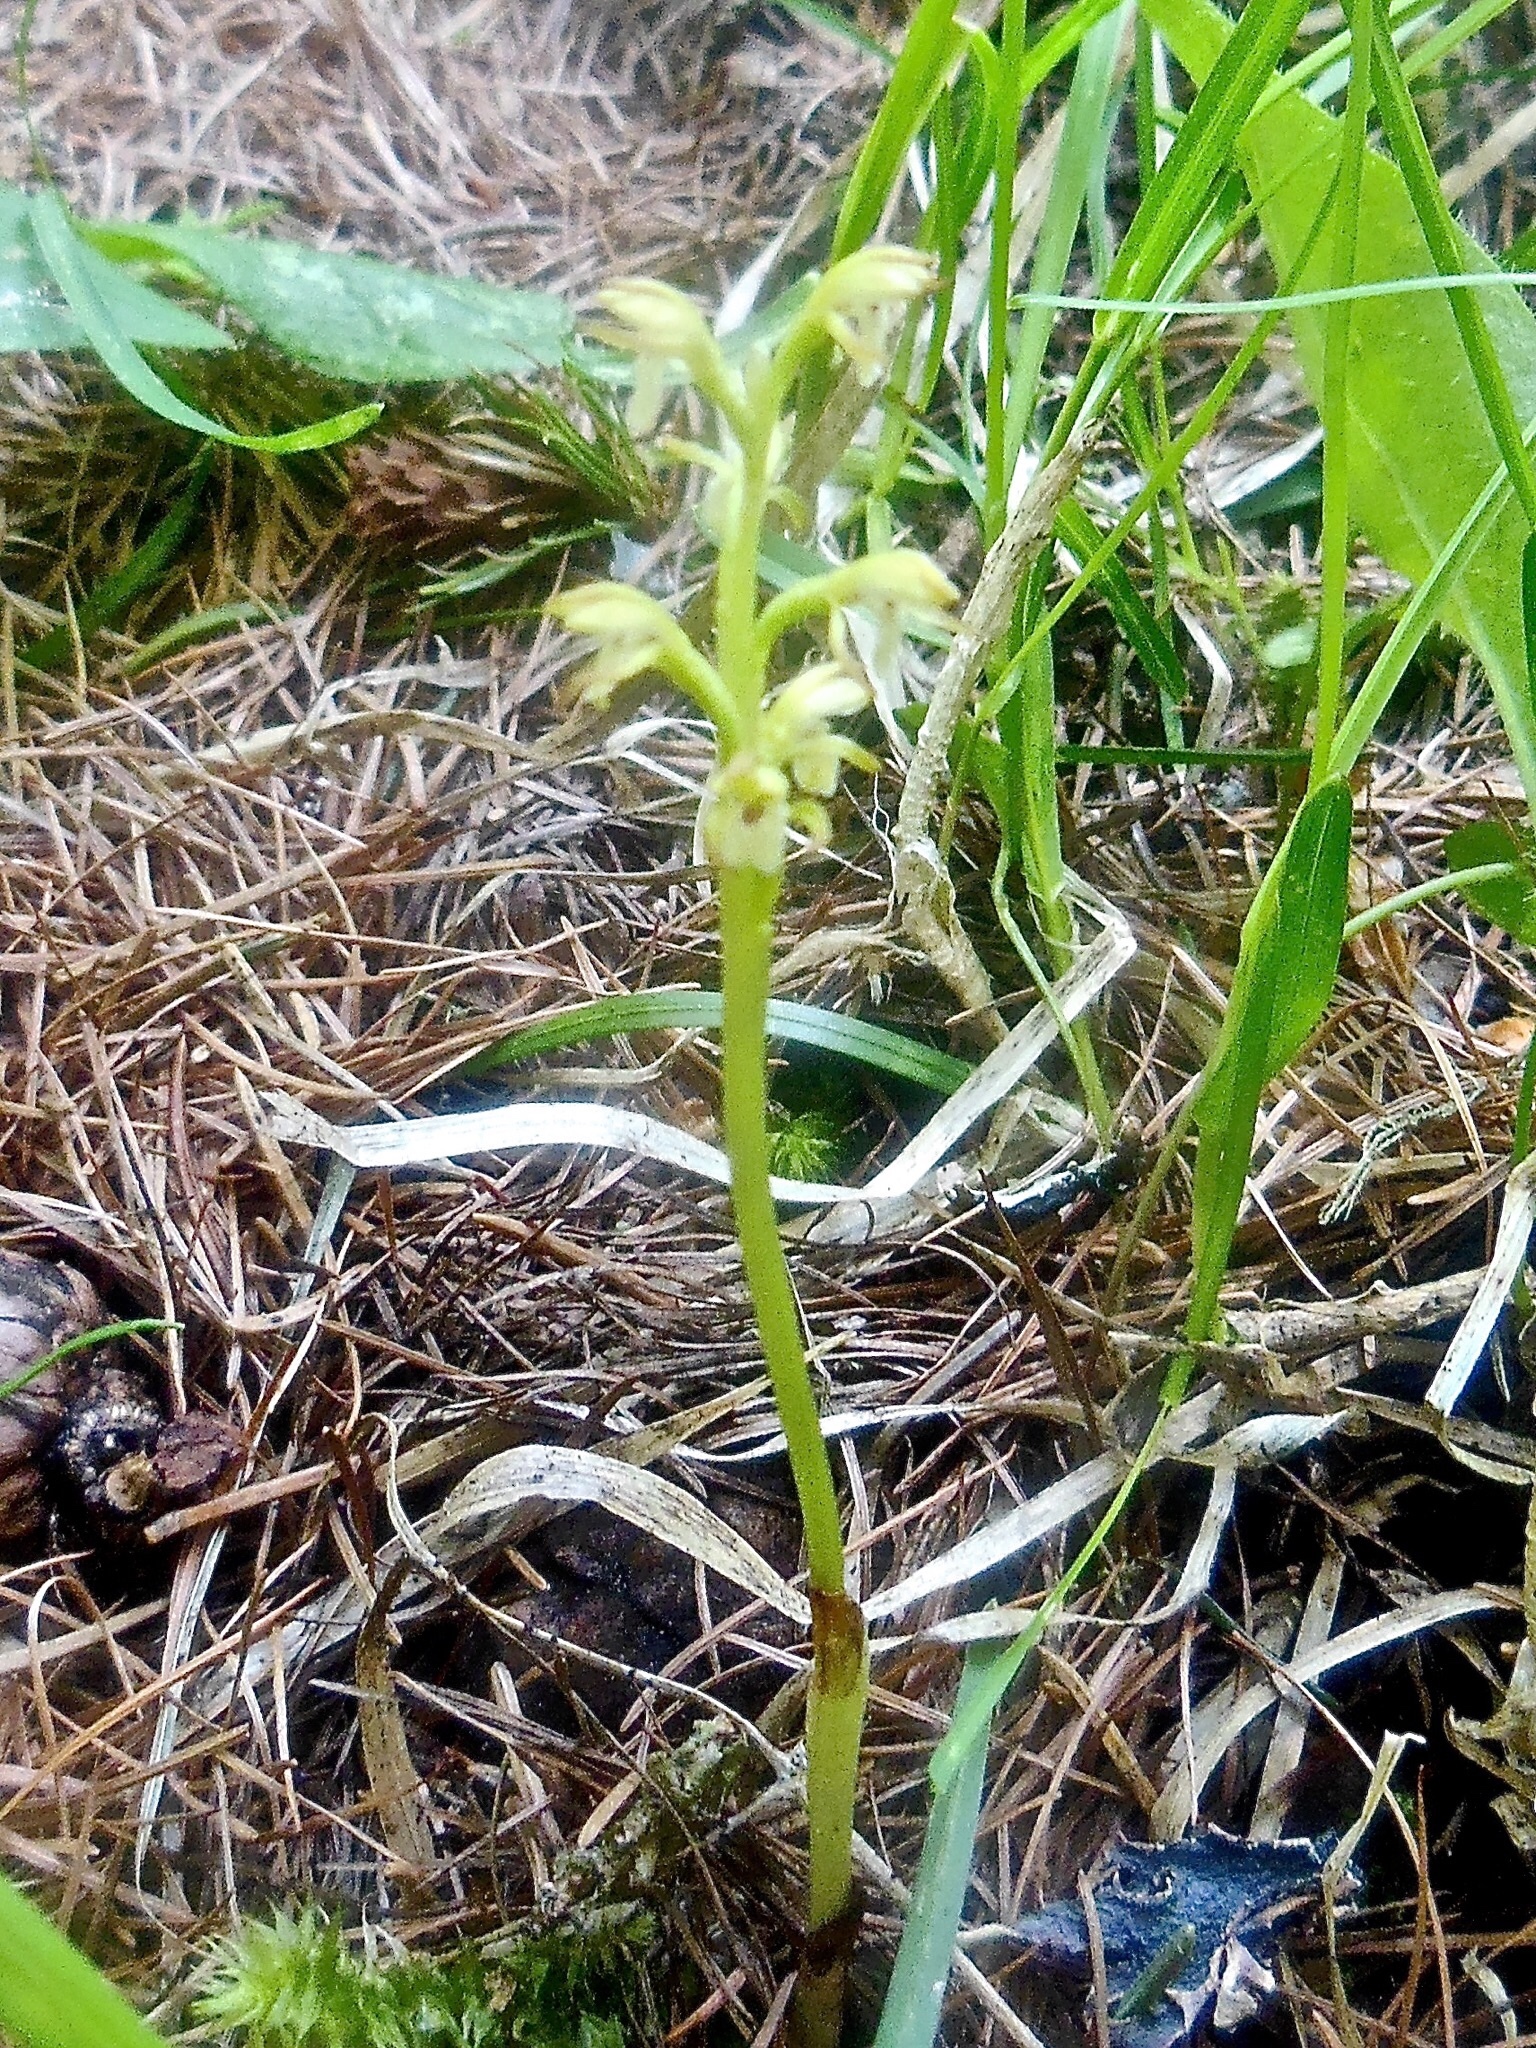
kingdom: Plantae
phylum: Tracheophyta
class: Liliopsida
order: Asparagales
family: Orchidaceae
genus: Corallorhiza
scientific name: Corallorhiza trifida
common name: Yellow coralroot
